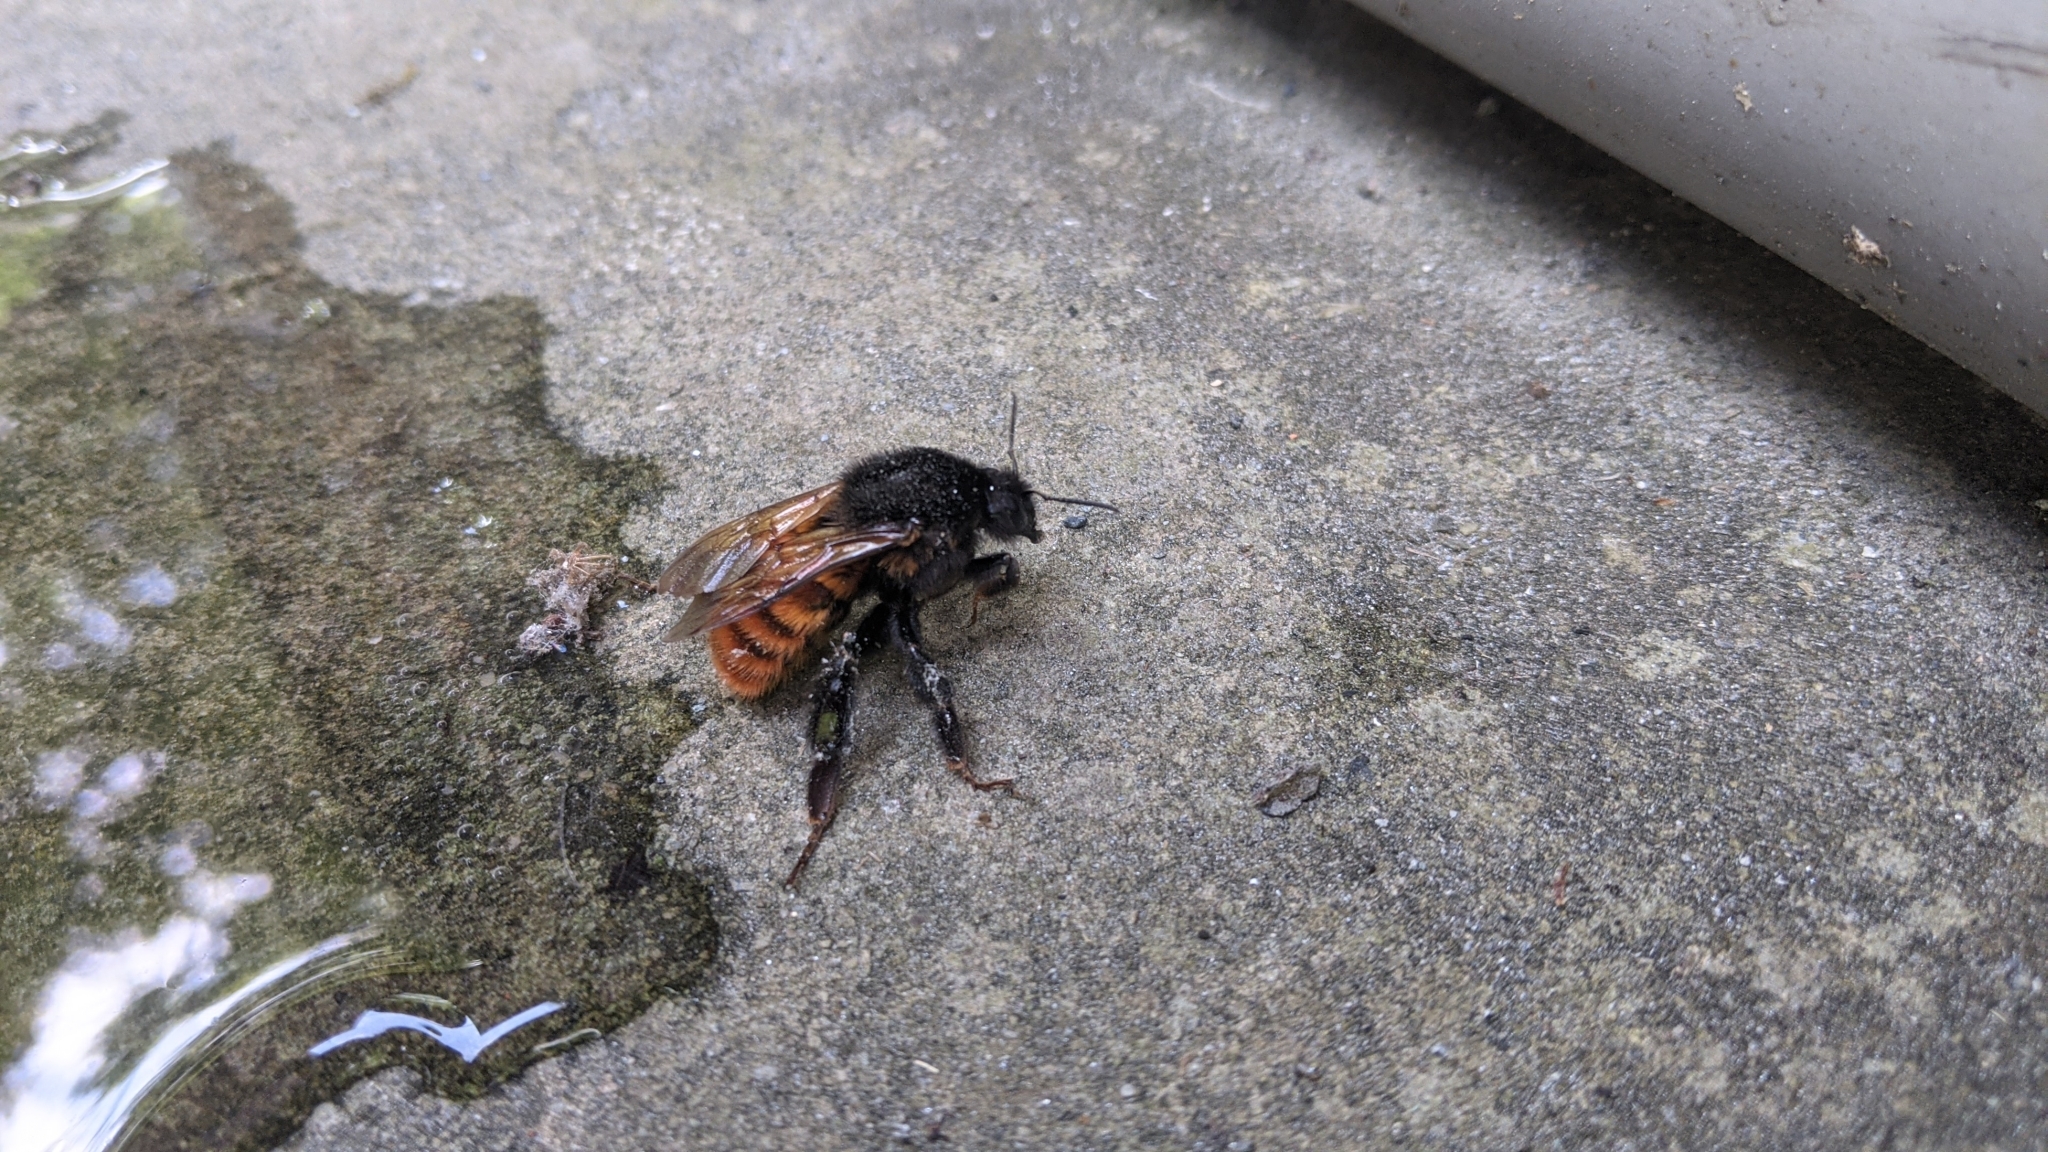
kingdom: Animalia
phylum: Arthropoda
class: Insecta
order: Hymenoptera
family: Apidae
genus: Bombus
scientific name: Bombus bicoloratus
